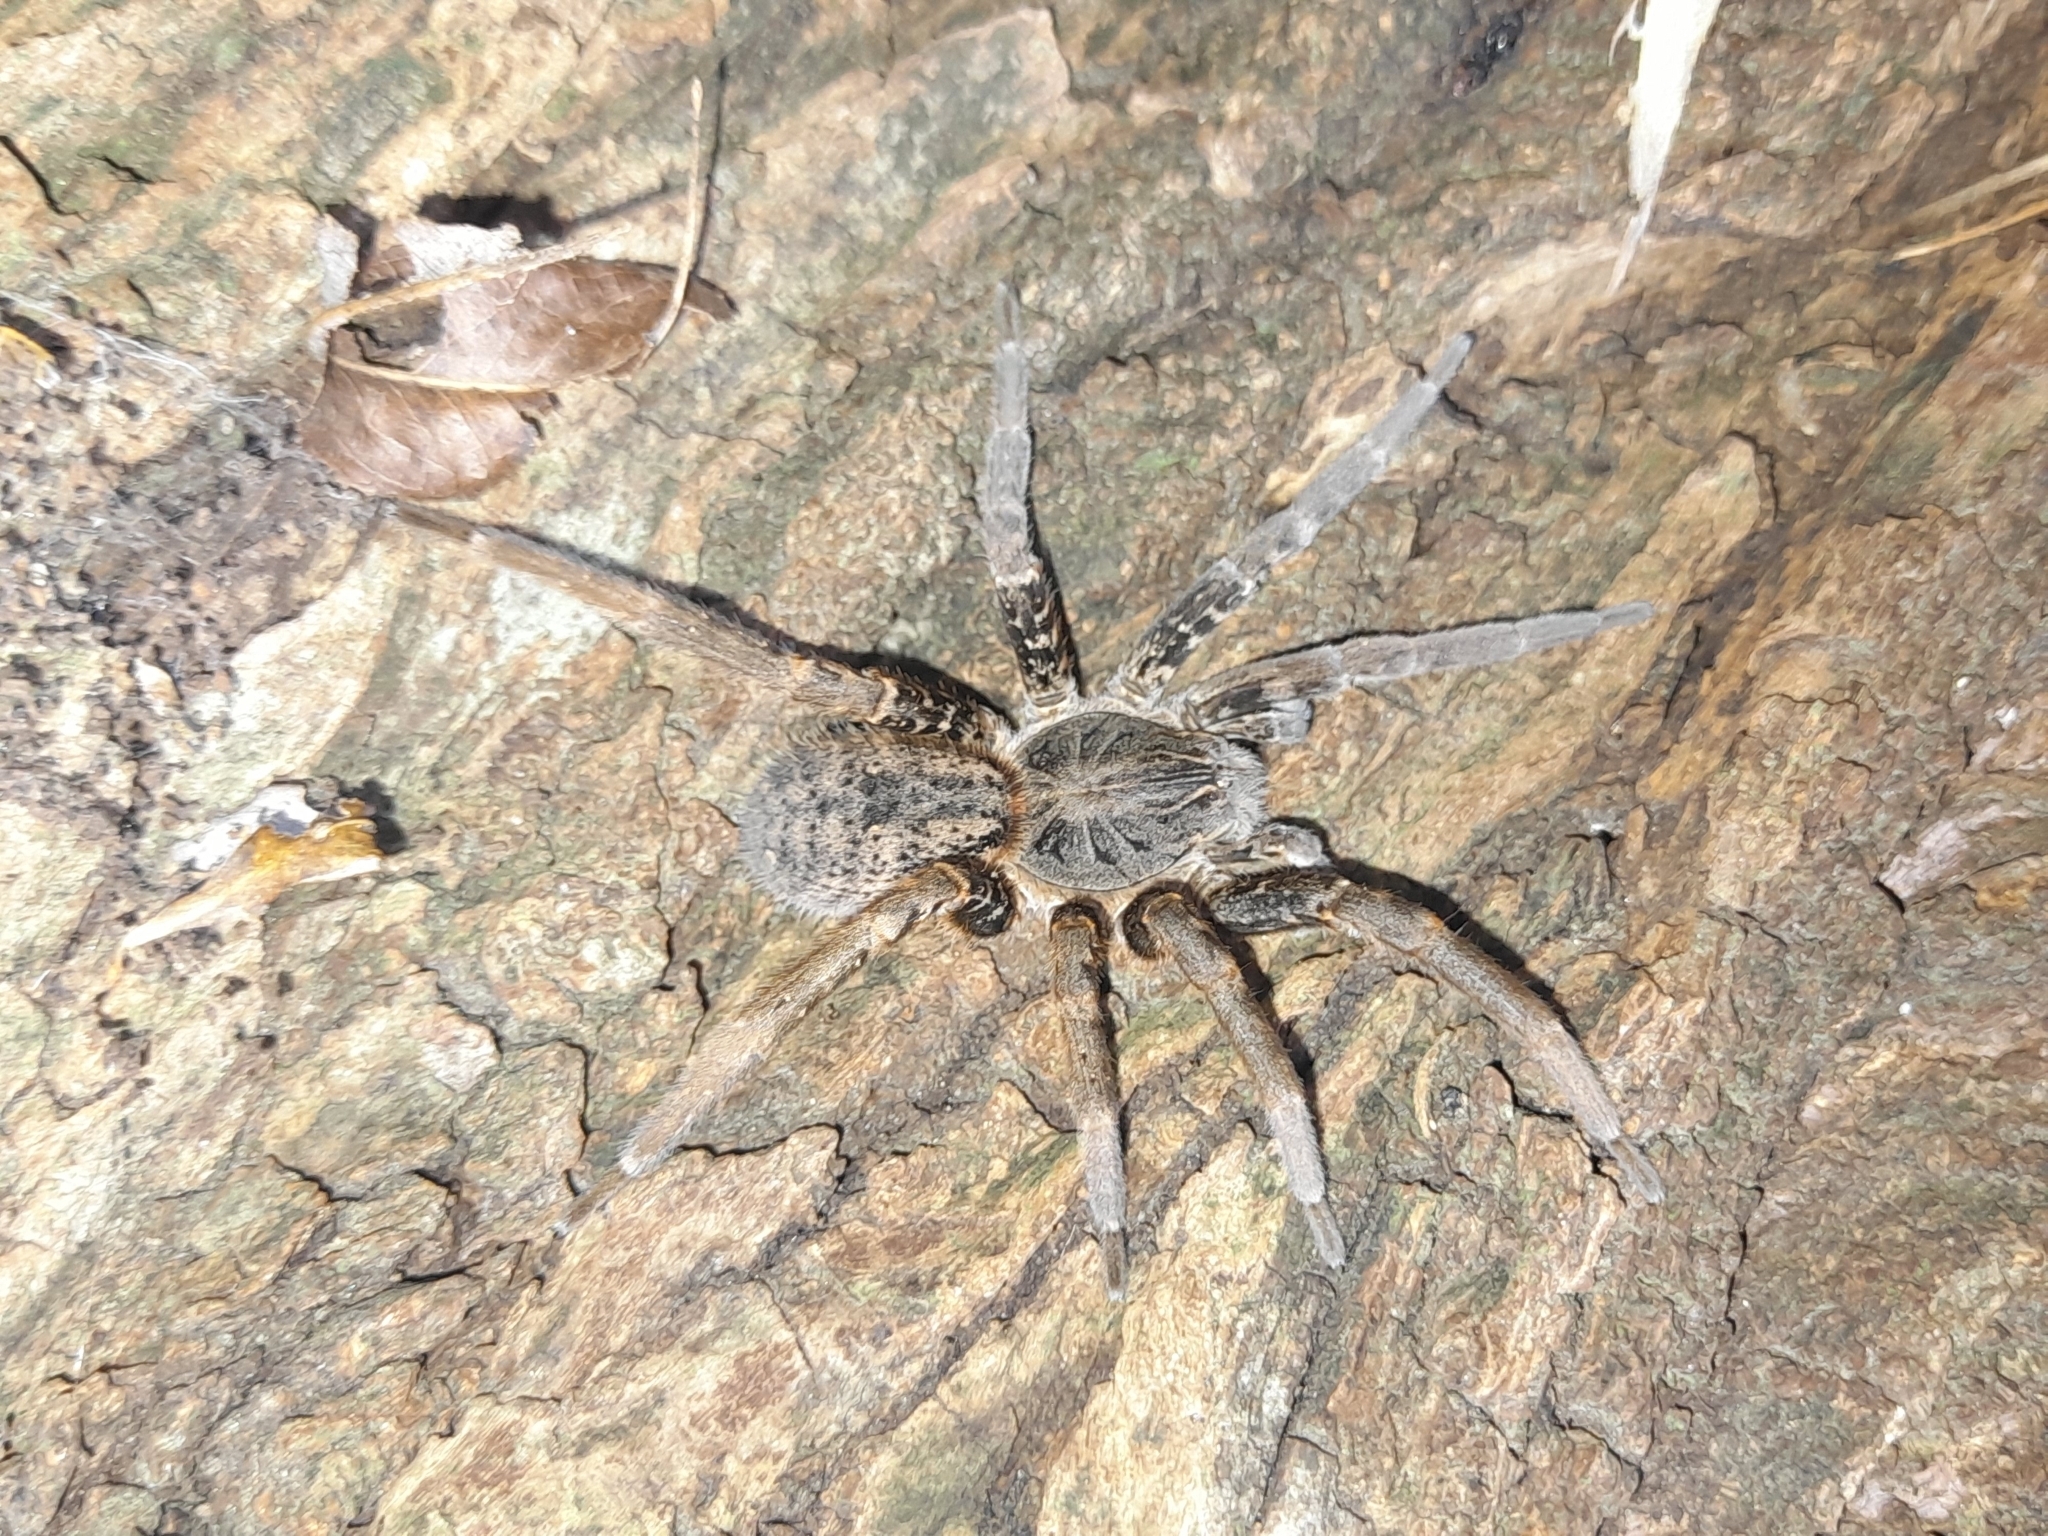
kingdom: Animalia
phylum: Arthropoda
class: Arachnida
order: Araneae
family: Ctenidae
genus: Ancylometes
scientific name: Ancylometes concolor
